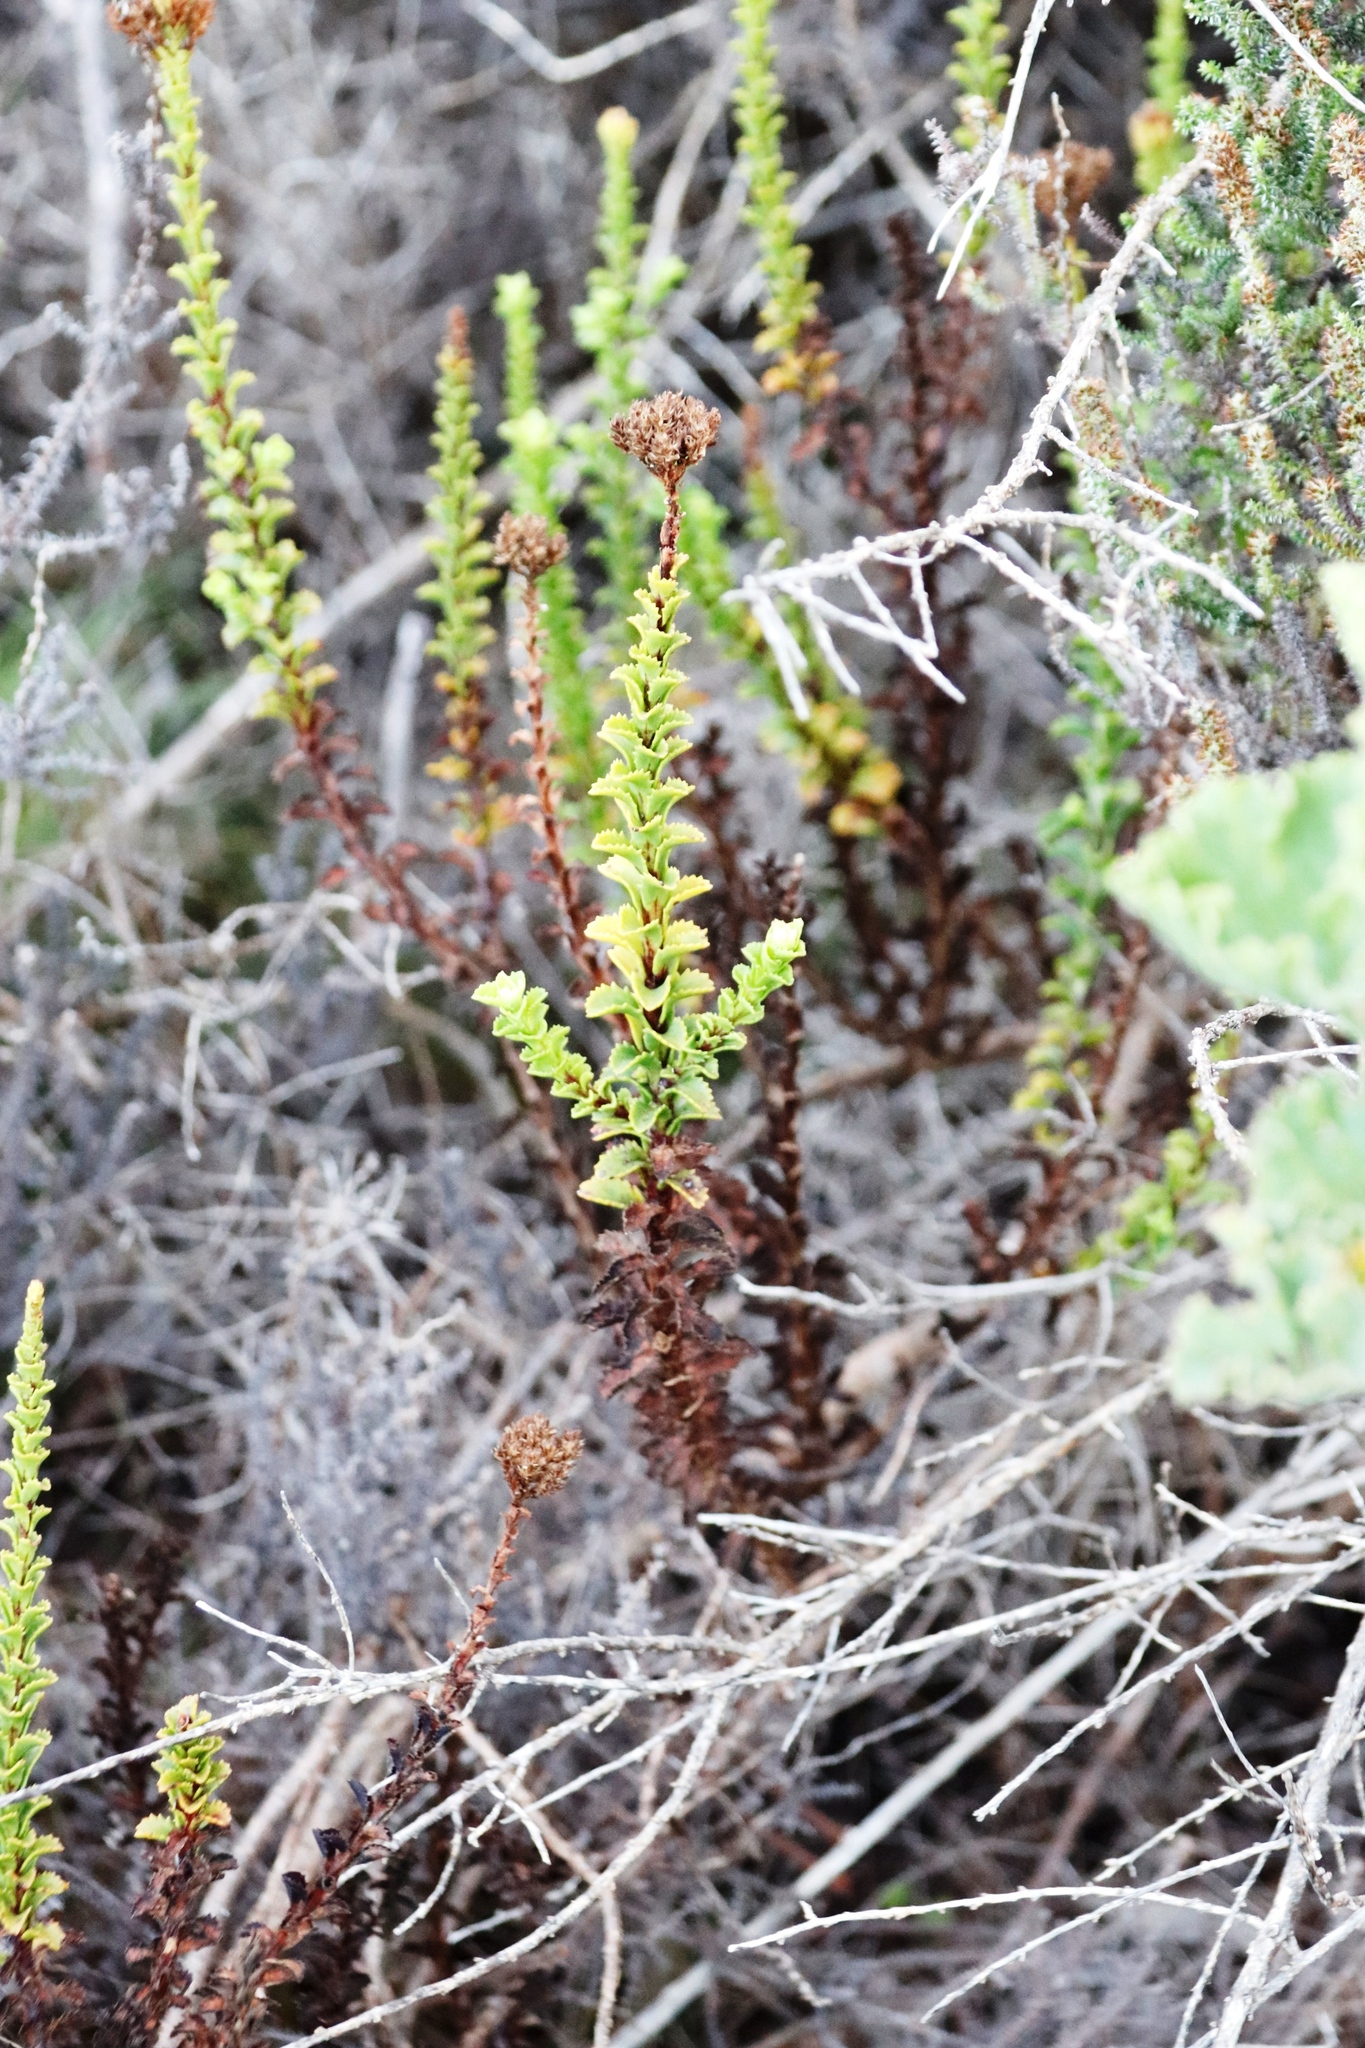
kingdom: Plantae
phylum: Tracheophyta
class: Magnoliopsida
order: Lamiales
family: Scrophulariaceae
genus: Pseudoselago
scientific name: Pseudoselago serrata
